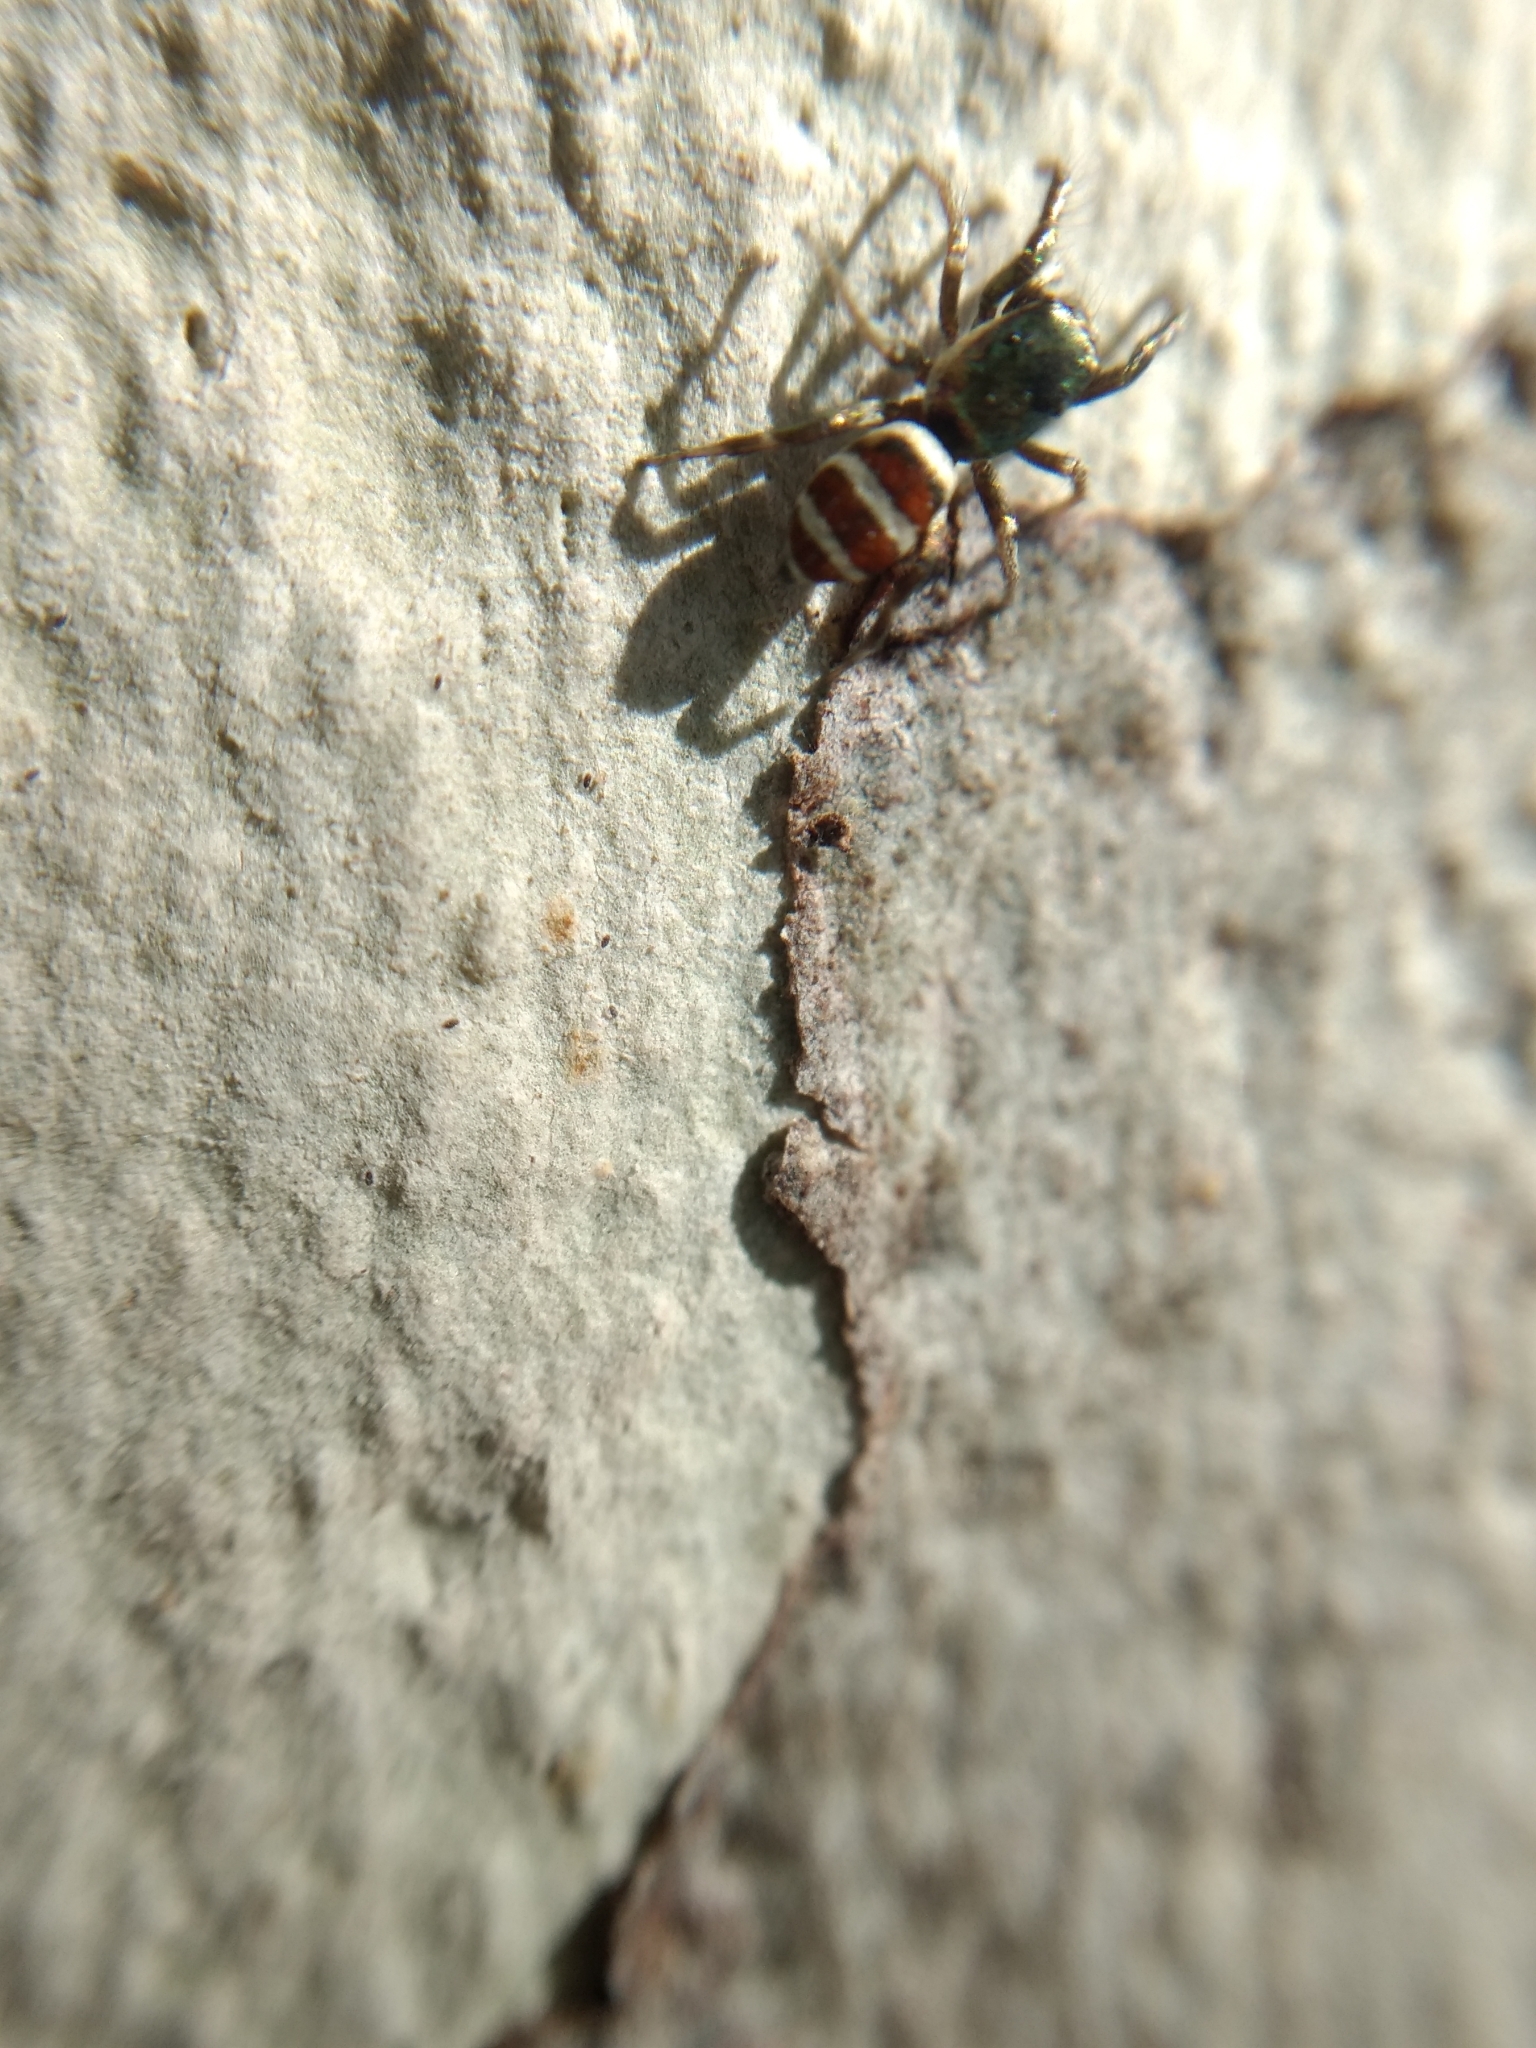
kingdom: Animalia
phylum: Arthropoda
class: Arachnida
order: Araneae
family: Salticidae
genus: Salticus
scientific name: Salticus palpalis
